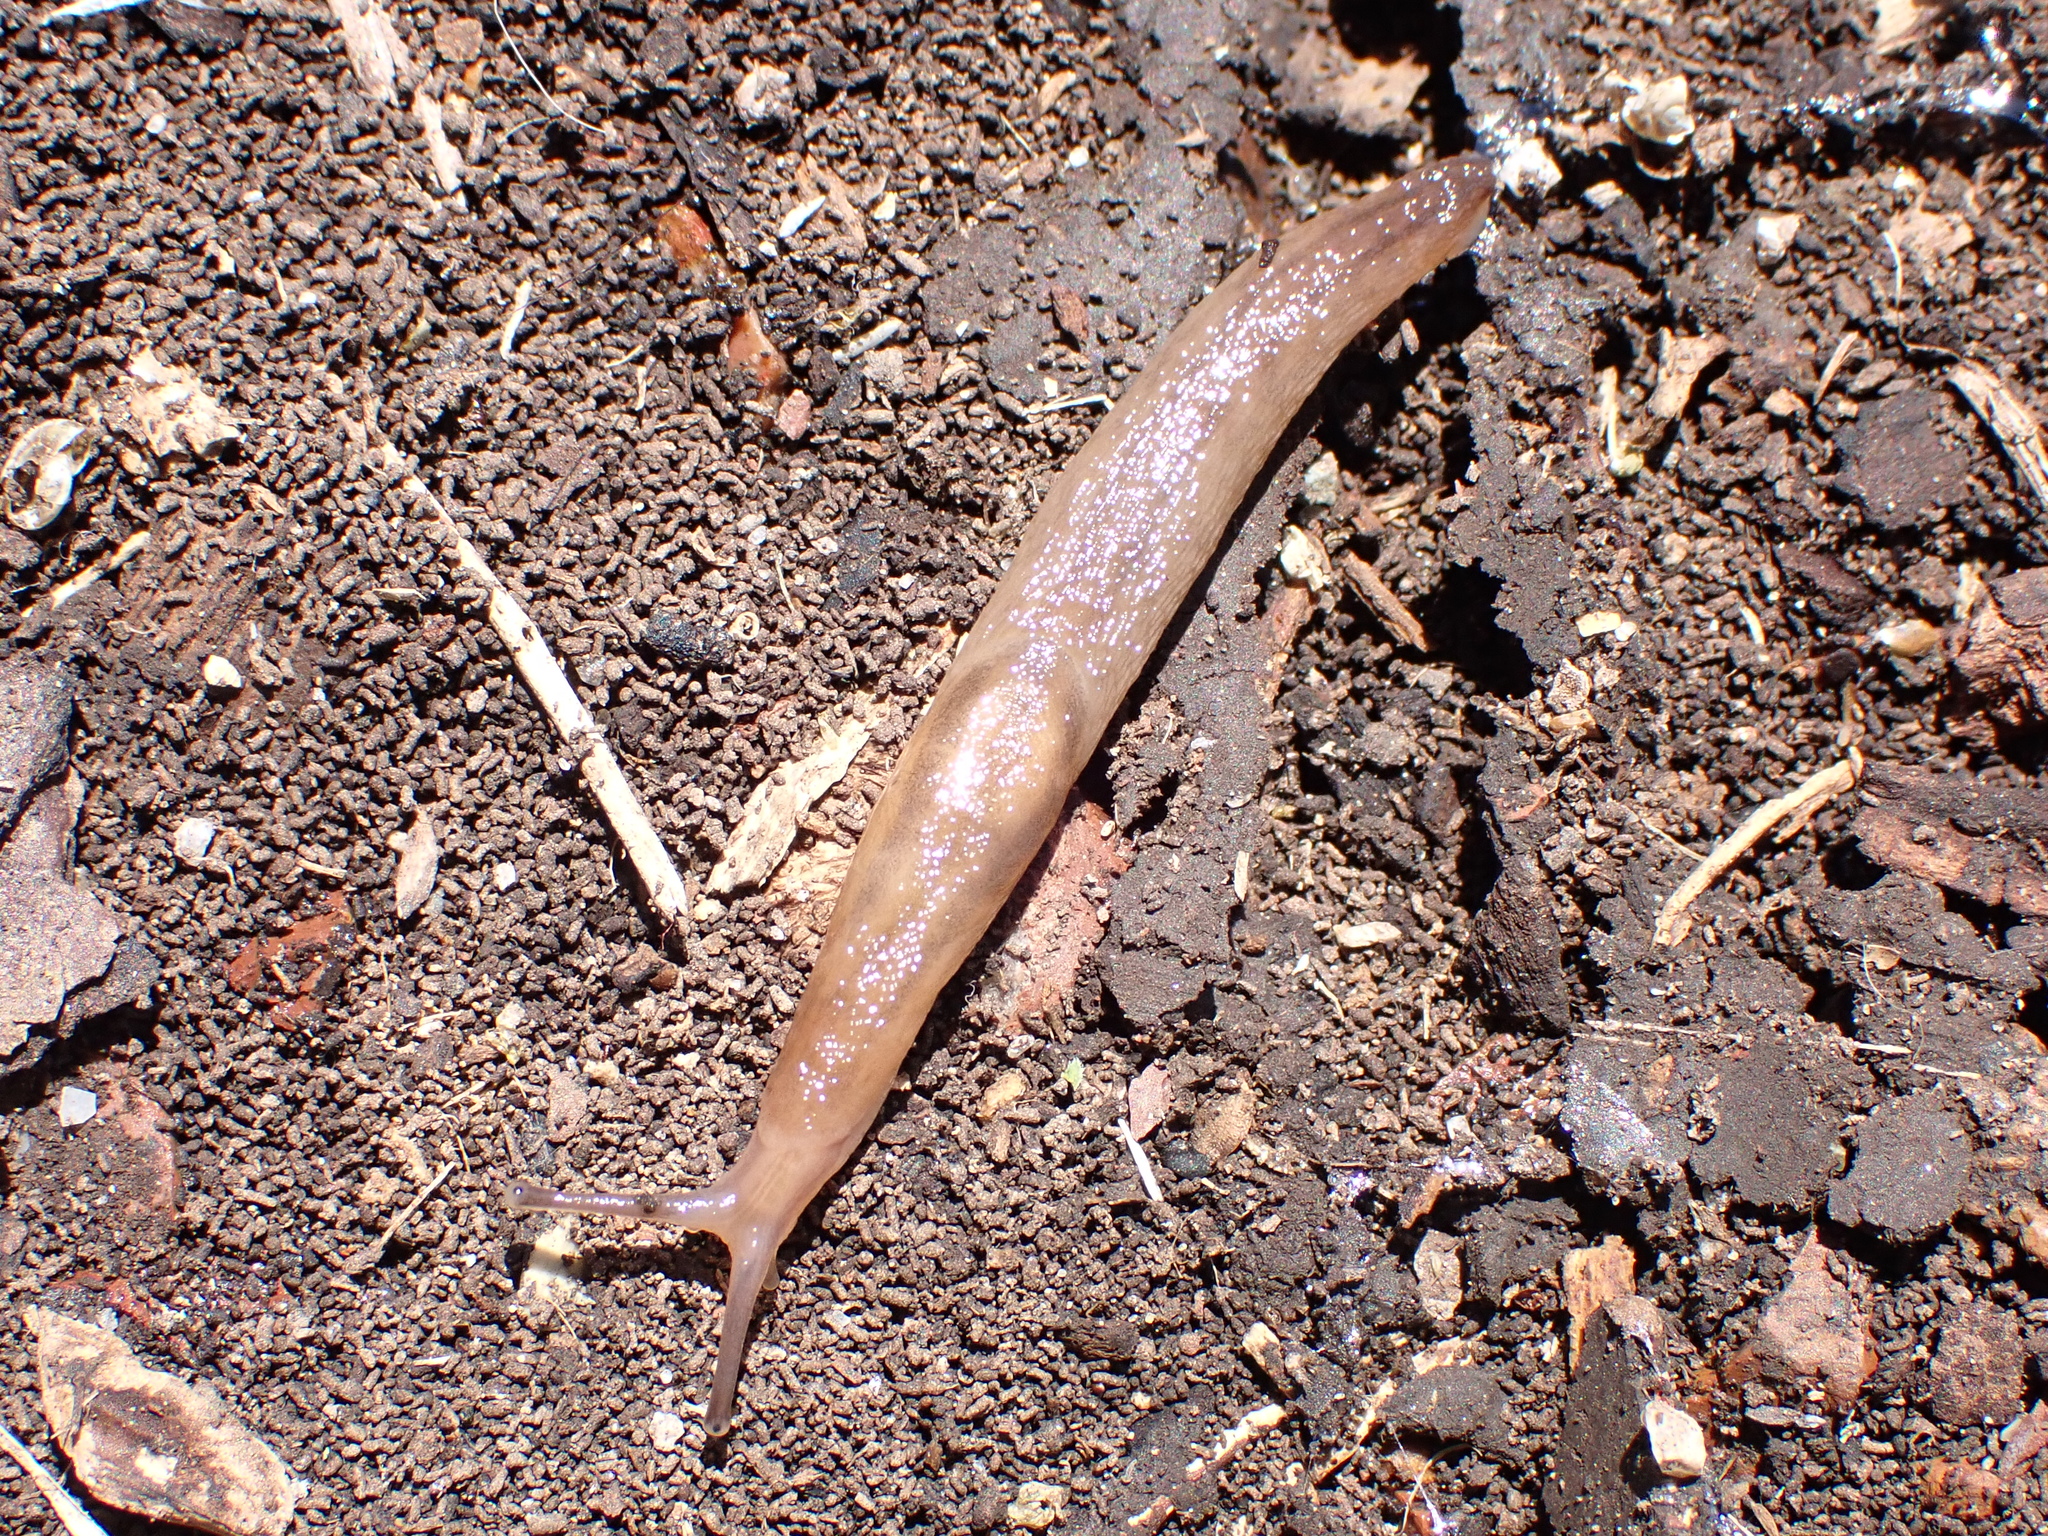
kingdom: Animalia
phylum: Mollusca
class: Gastropoda
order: Stylommatophora
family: Limacidae
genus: Ambigolimax
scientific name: Ambigolimax
